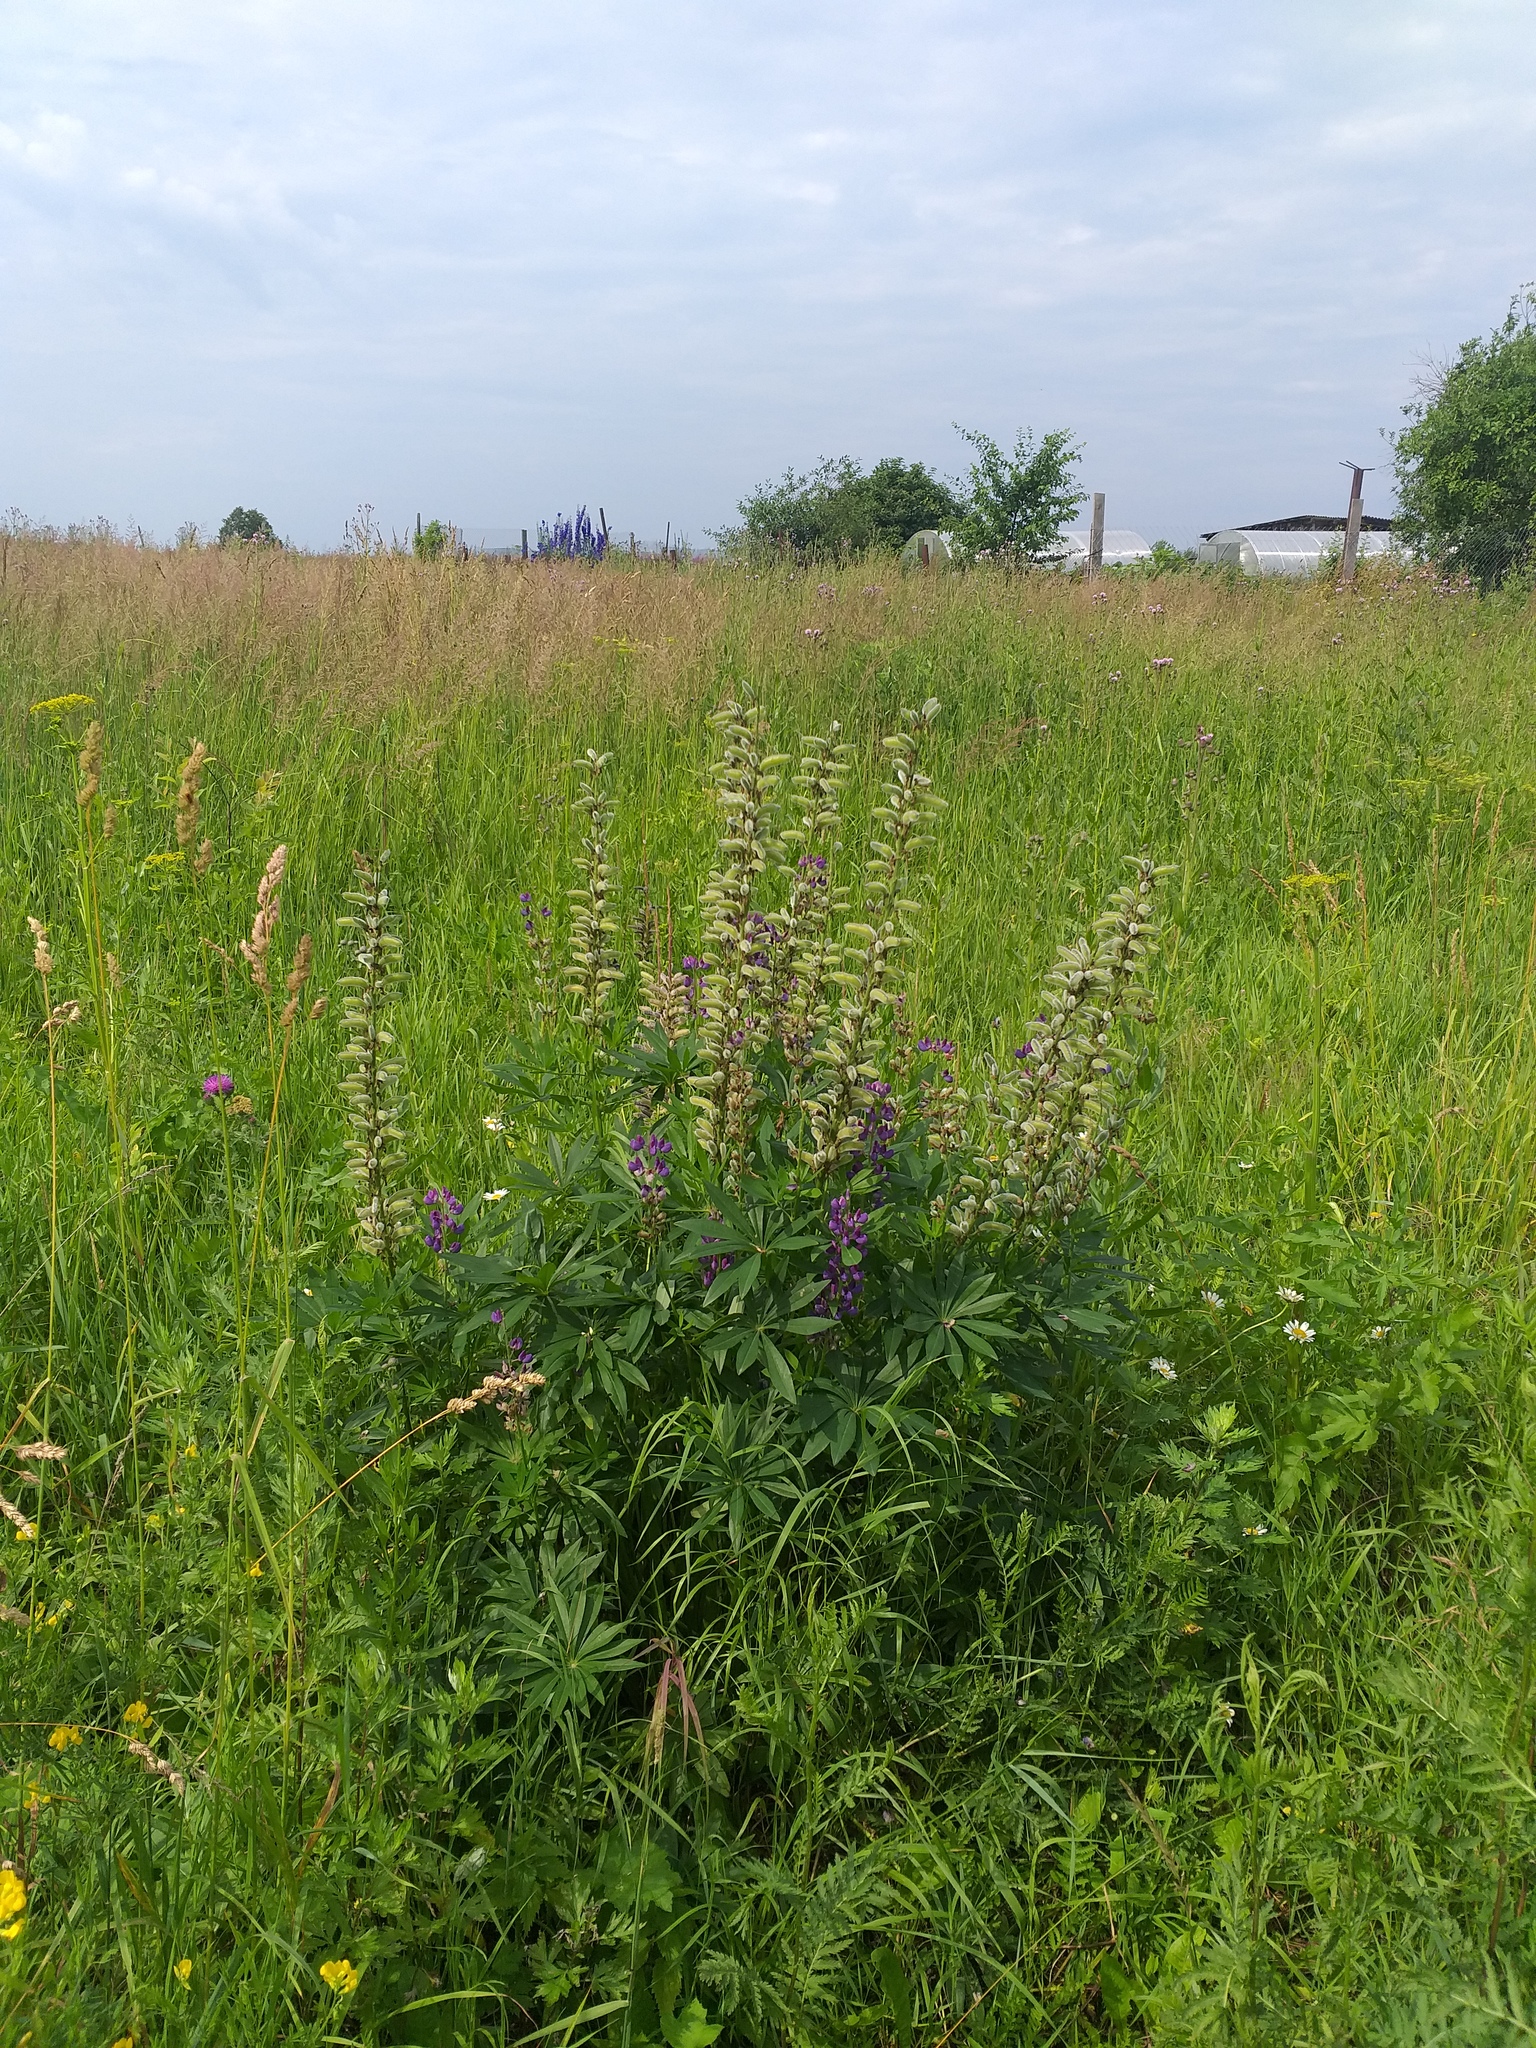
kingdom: Plantae
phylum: Tracheophyta
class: Magnoliopsida
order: Fabales
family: Fabaceae
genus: Lupinus
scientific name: Lupinus polyphyllus
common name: Garden lupin
